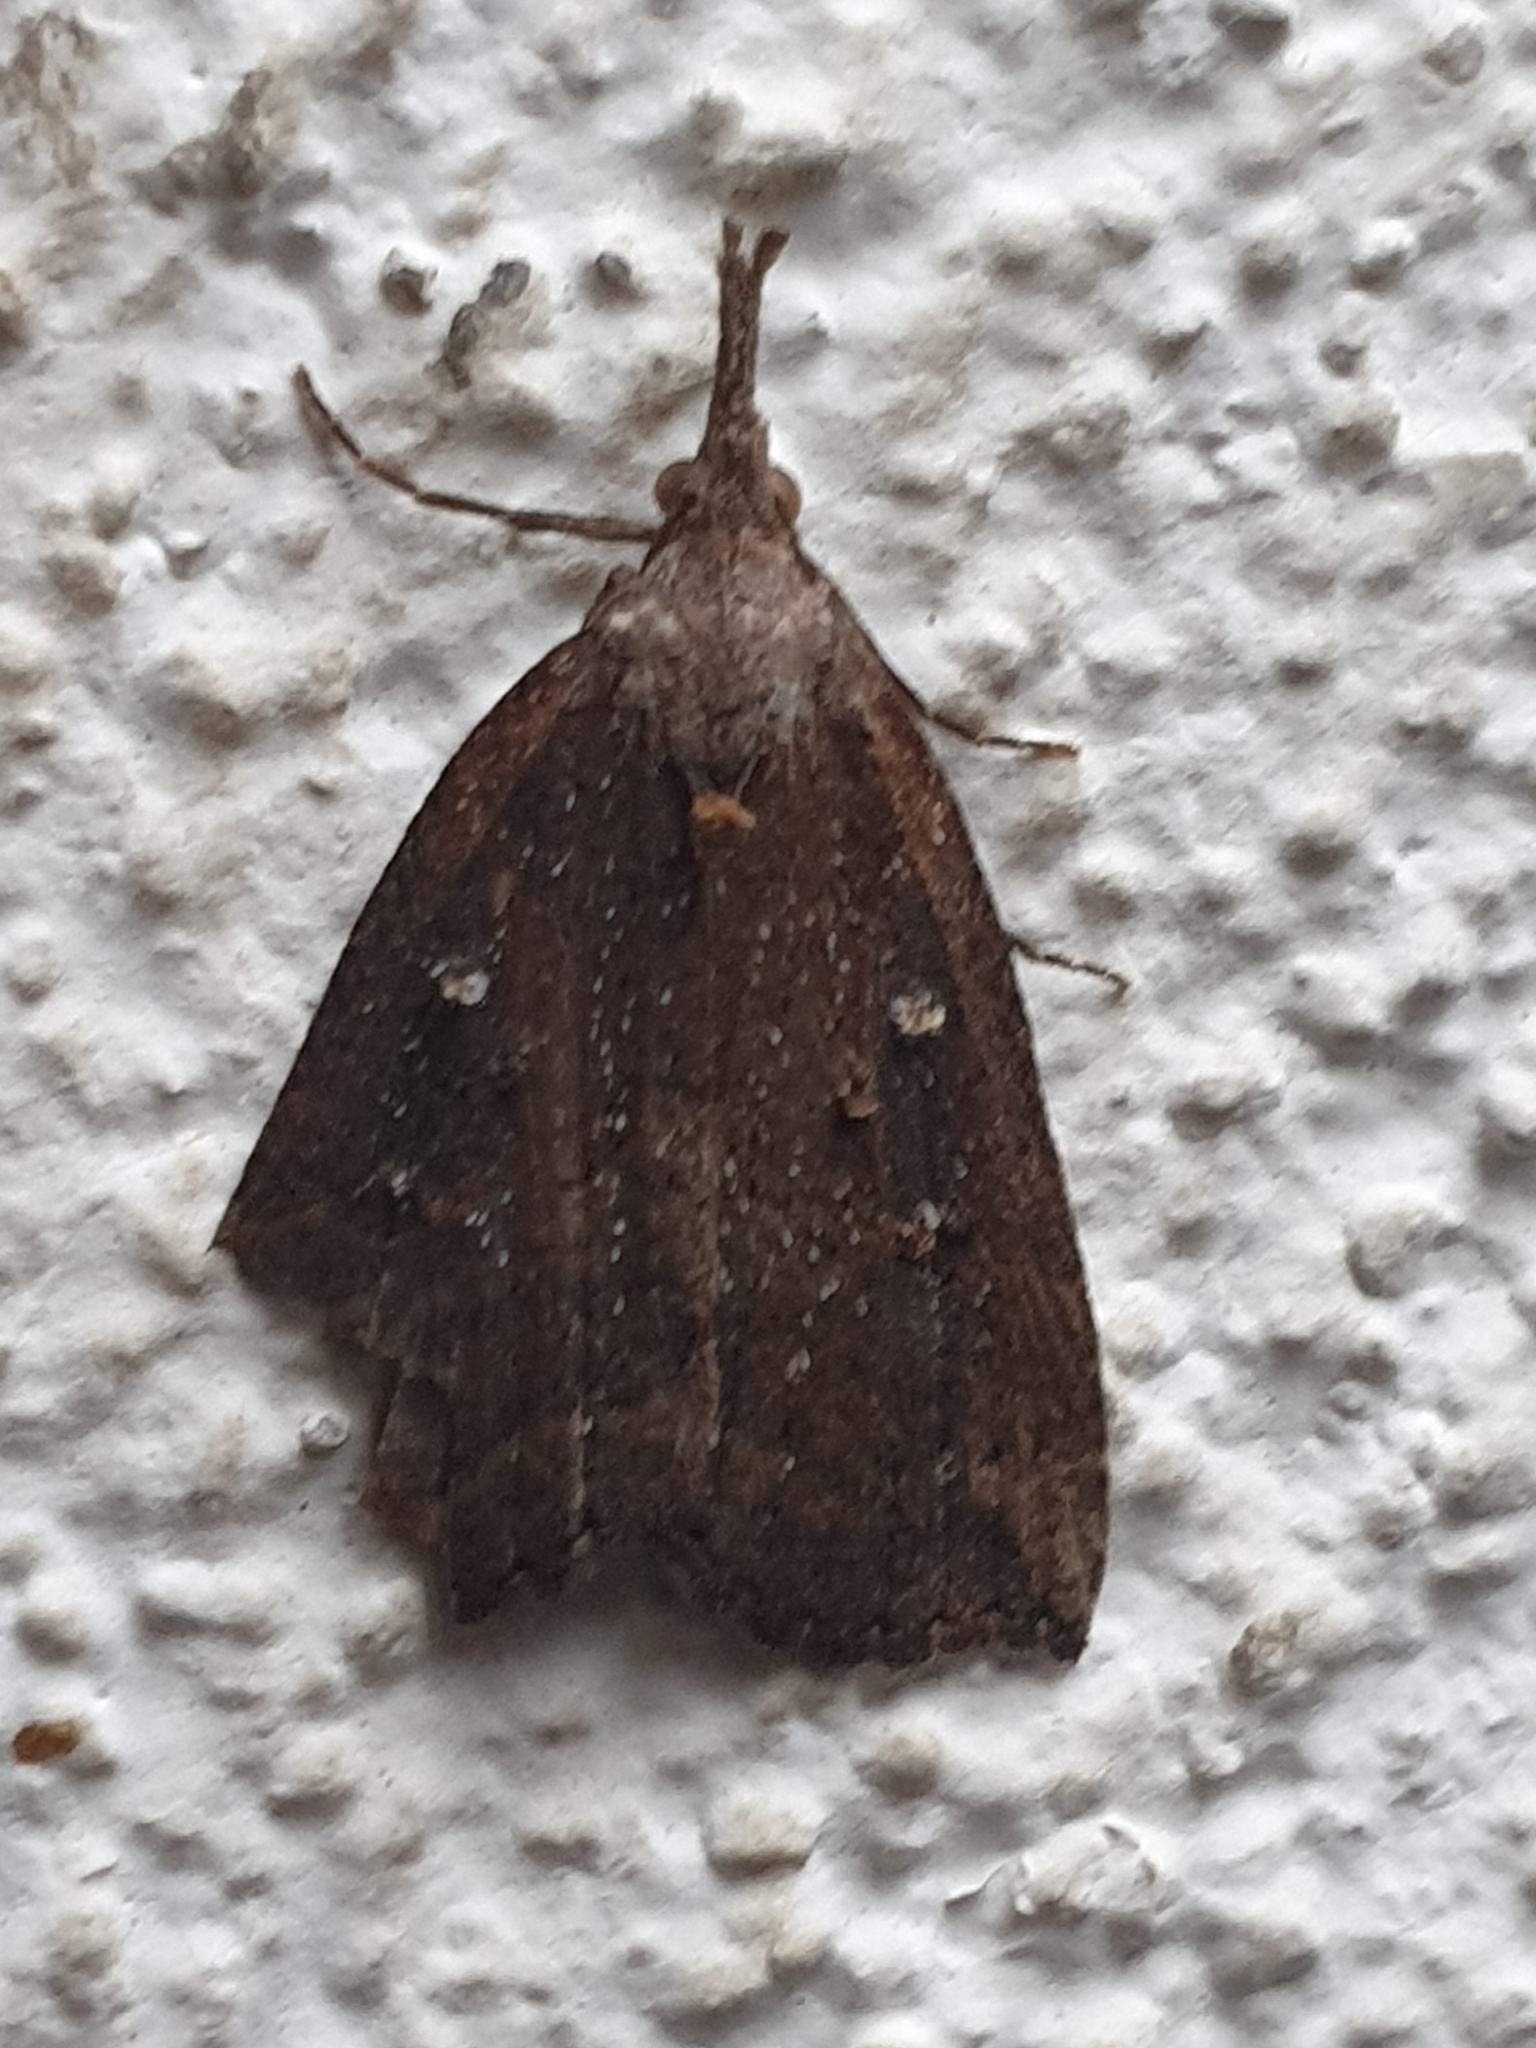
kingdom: Animalia
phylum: Arthropoda
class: Insecta
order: Lepidoptera
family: Erebidae
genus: Hypena
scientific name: Hypena rostralis
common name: Buttoned snout
